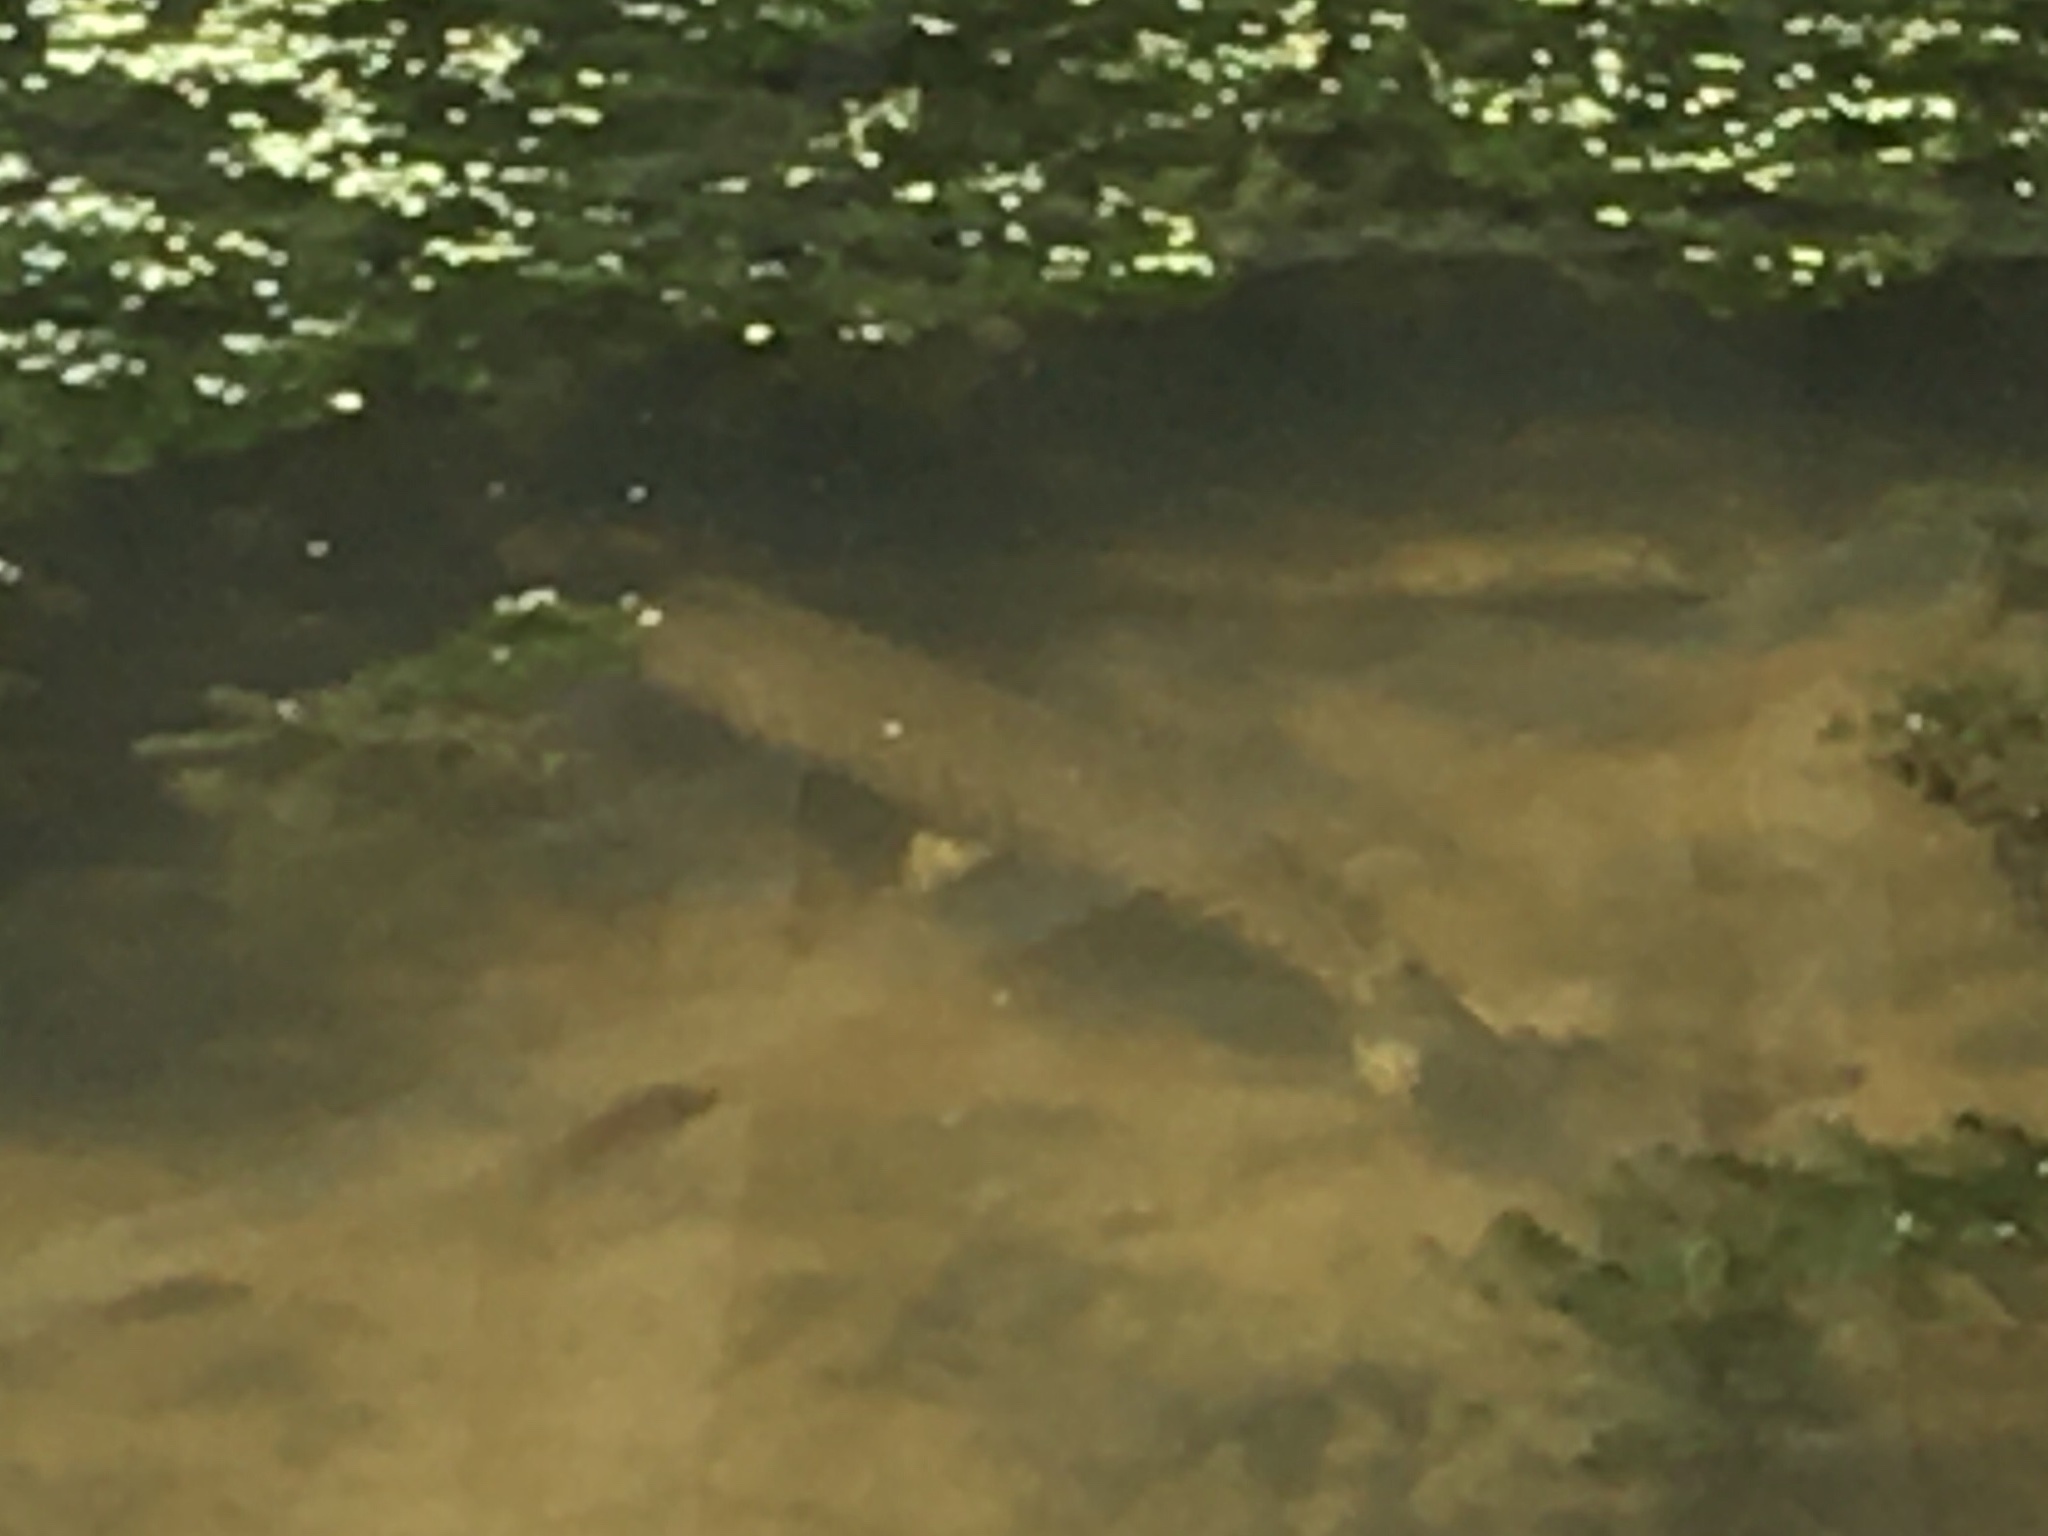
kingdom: Animalia
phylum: Chordata
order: Lepisosteiformes
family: Lepisosteidae
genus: Lepisosteus
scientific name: Lepisosteus oculatus
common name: Spotted gar
